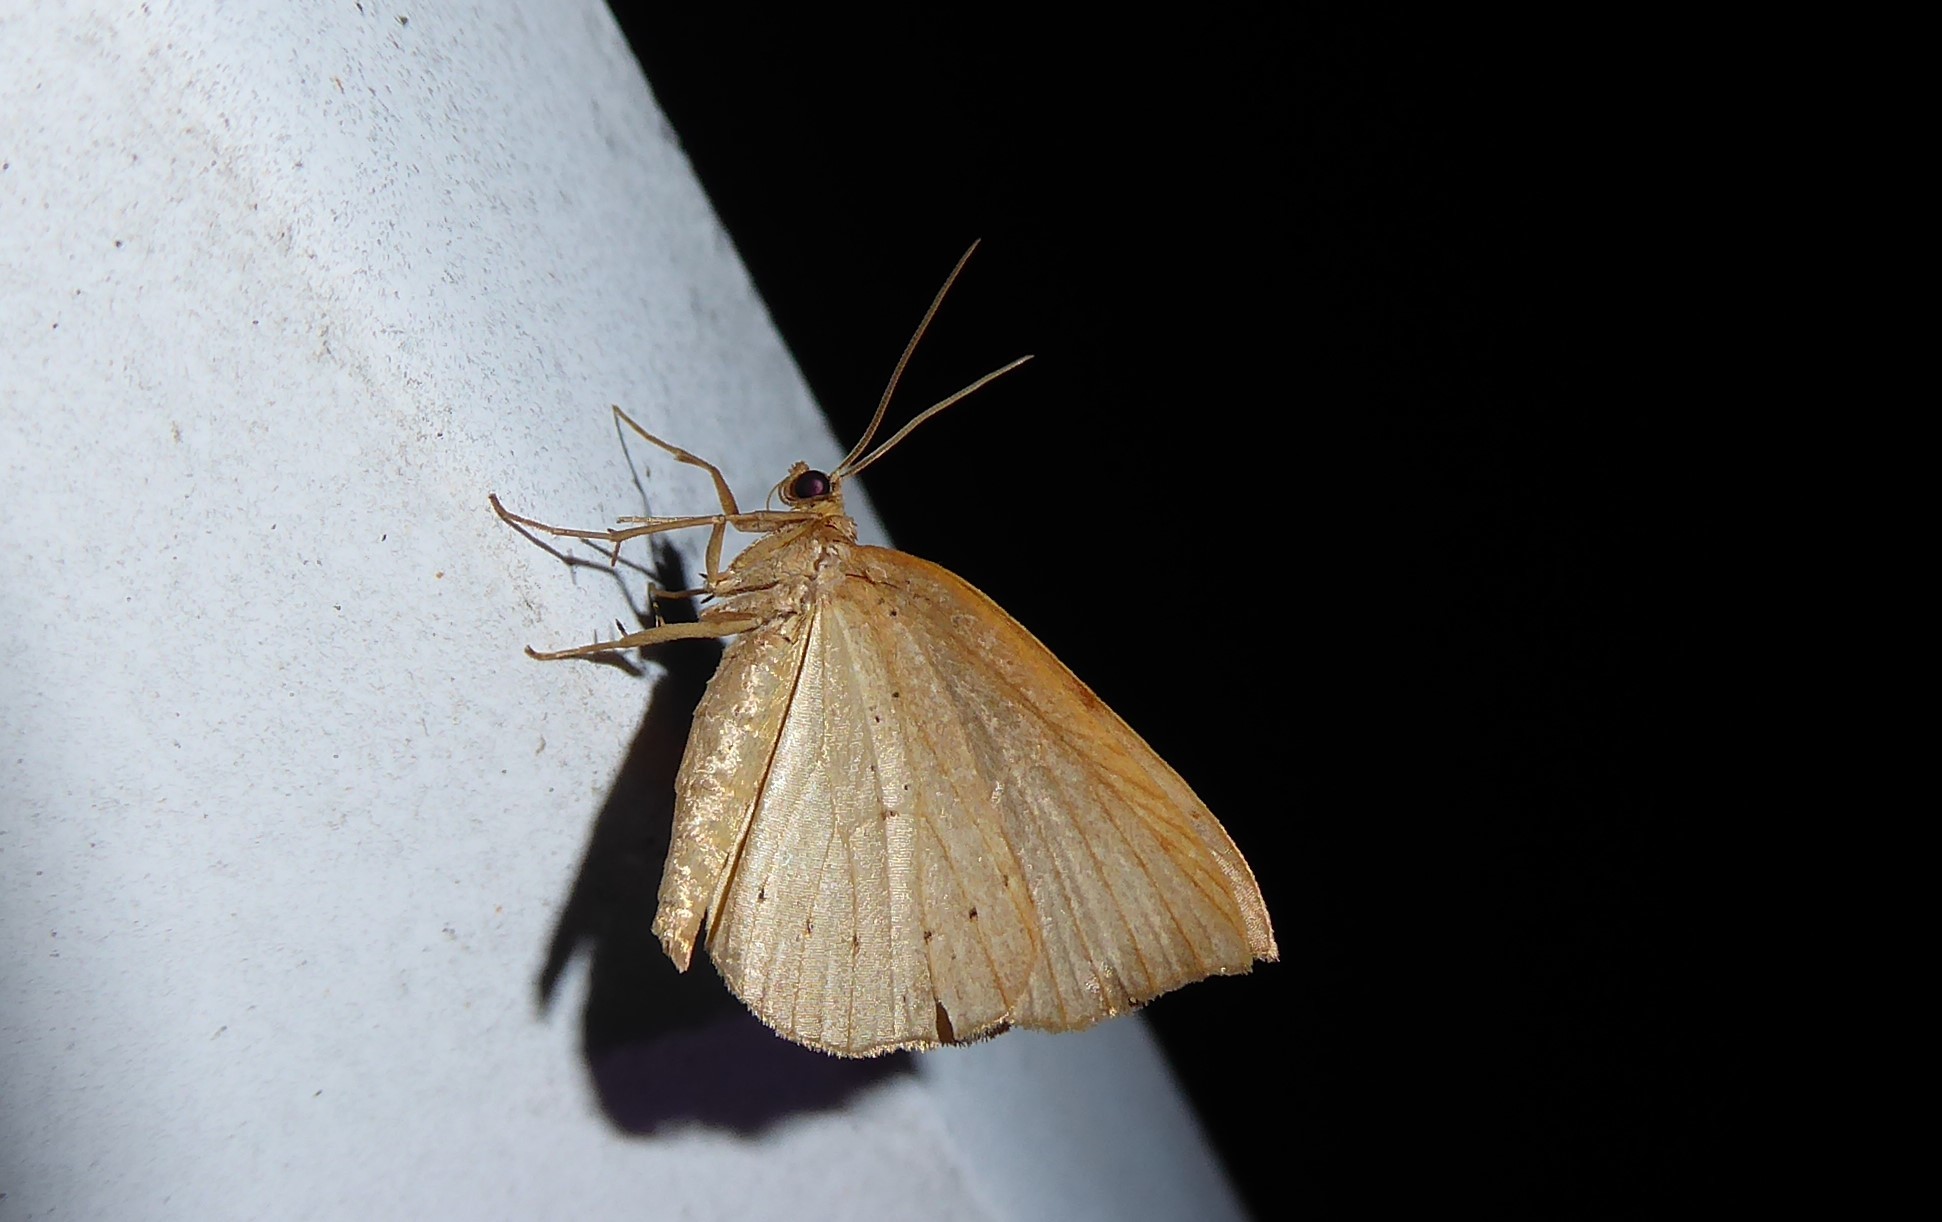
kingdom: Animalia
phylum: Arthropoda
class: Insecta
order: Lepidoptera
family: Geometridae
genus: Sestra
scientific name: Sestra humeraria
